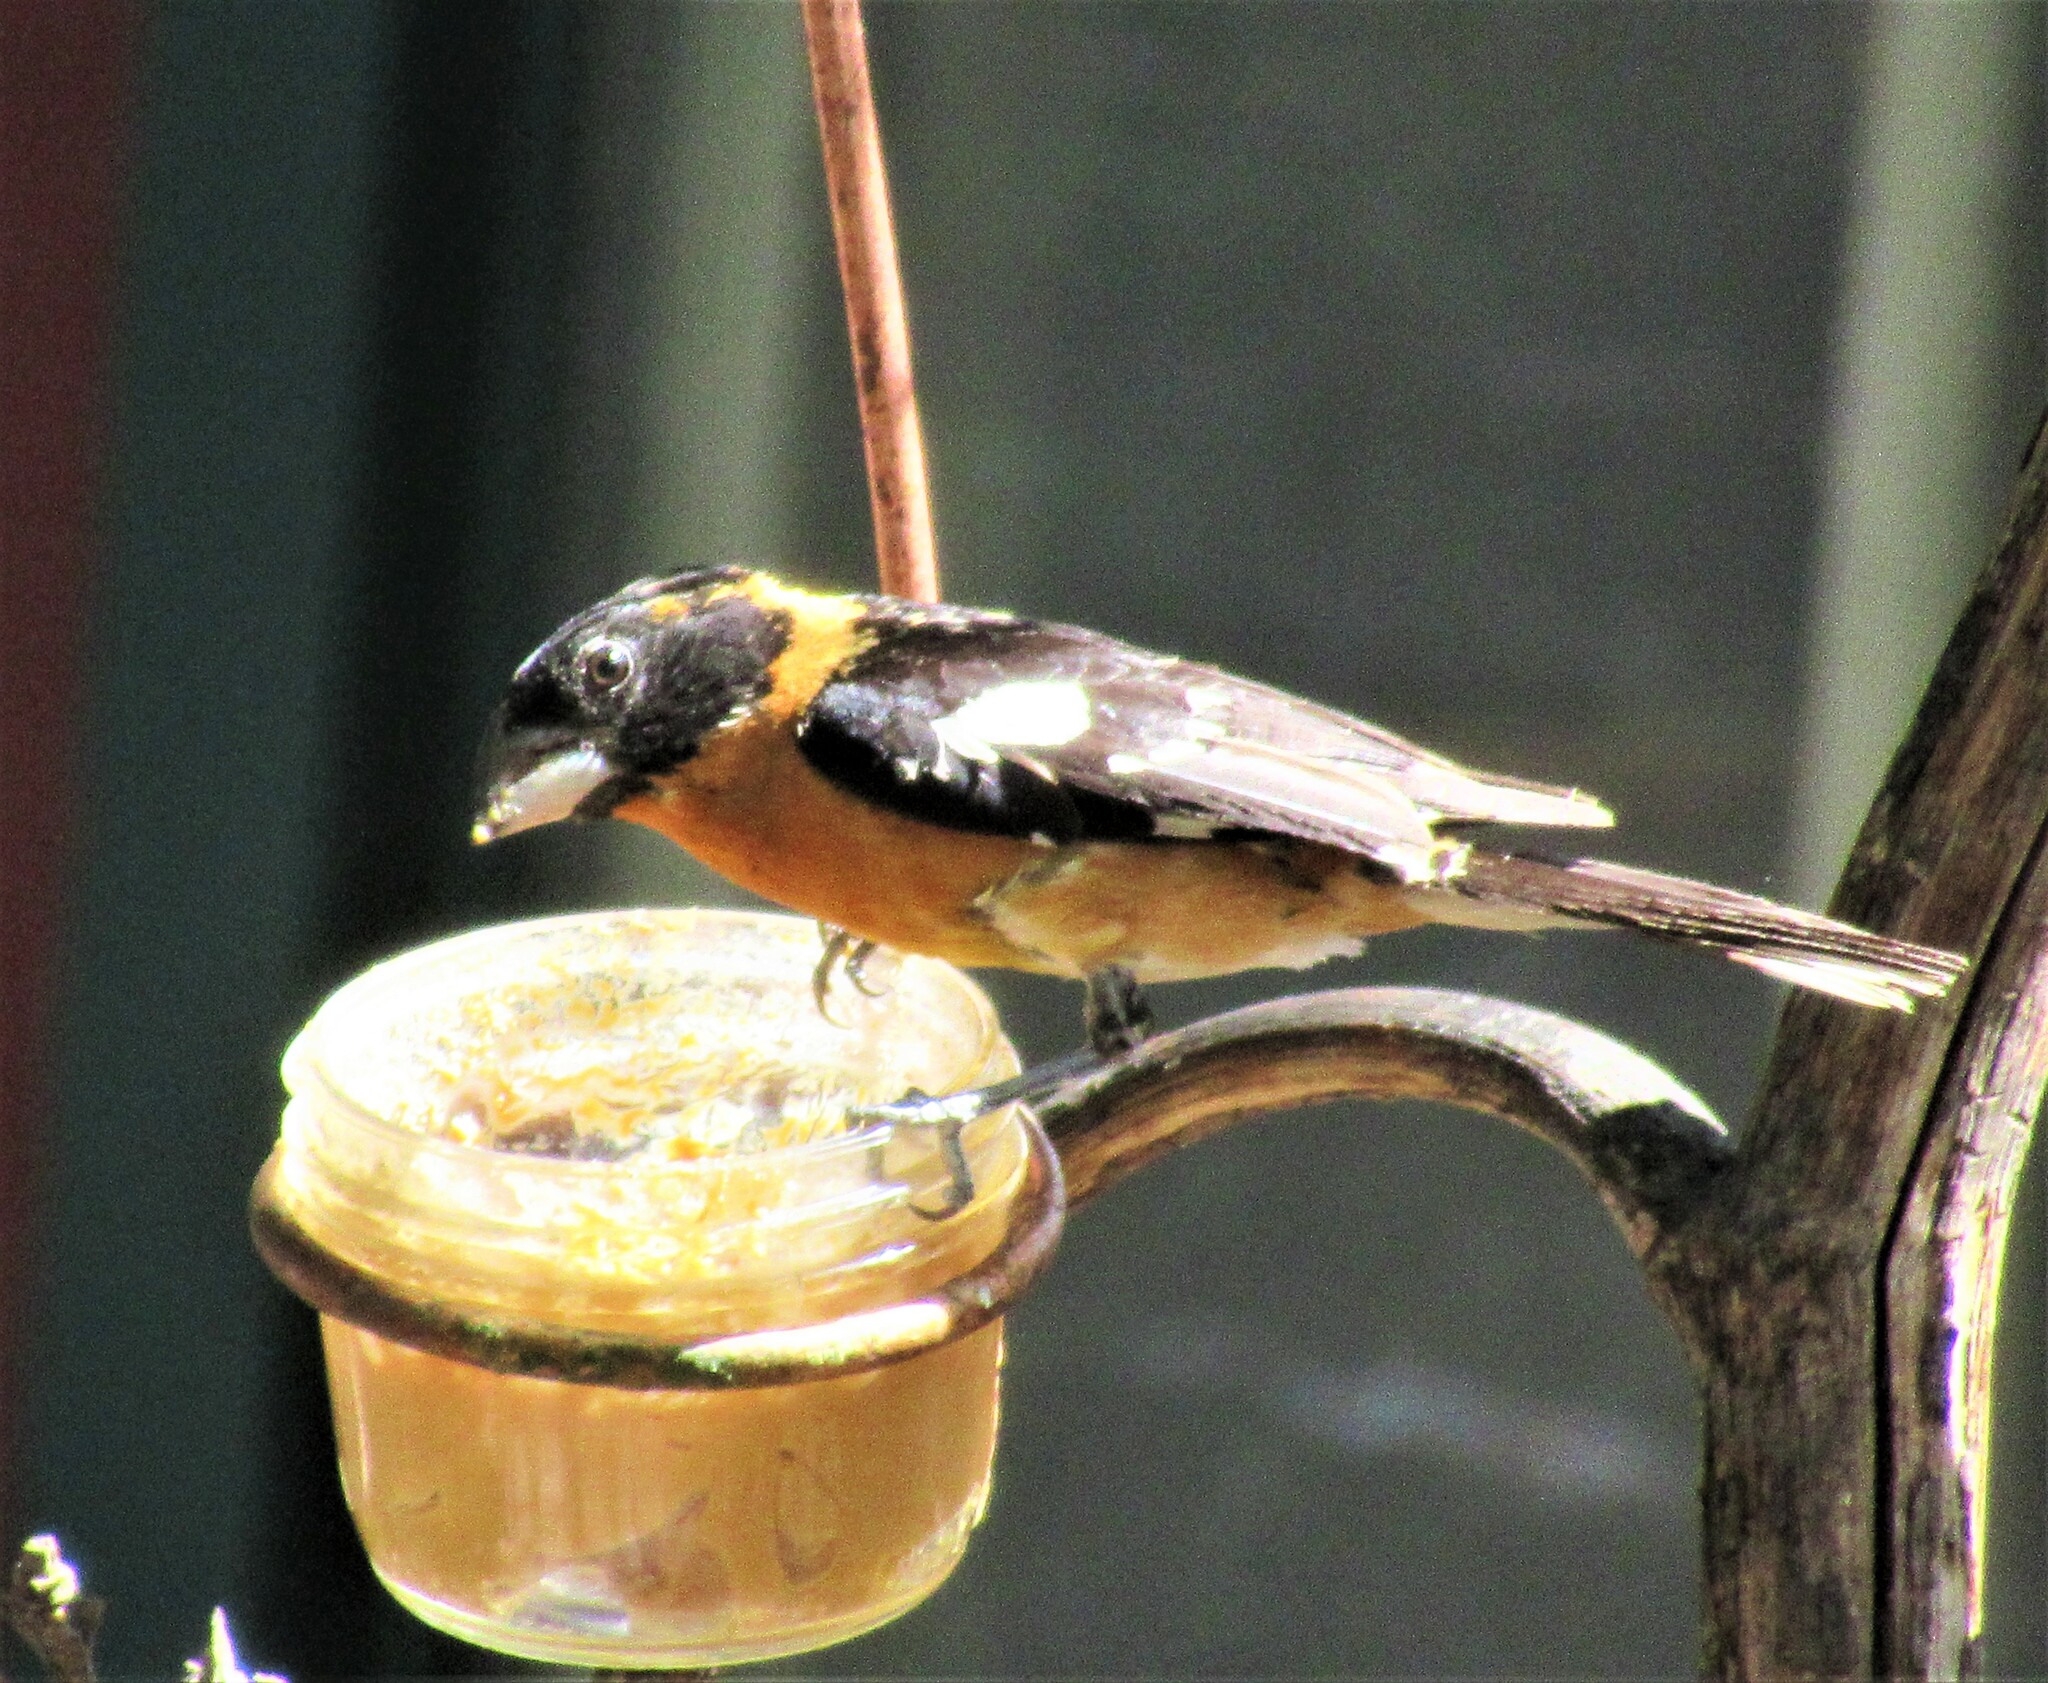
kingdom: Animalia
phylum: Chordata
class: Aves
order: Passeriformes
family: Cardinalidae
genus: Pheucticus
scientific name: Pheucticus melanocephalus
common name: Black-headed grosbeak
